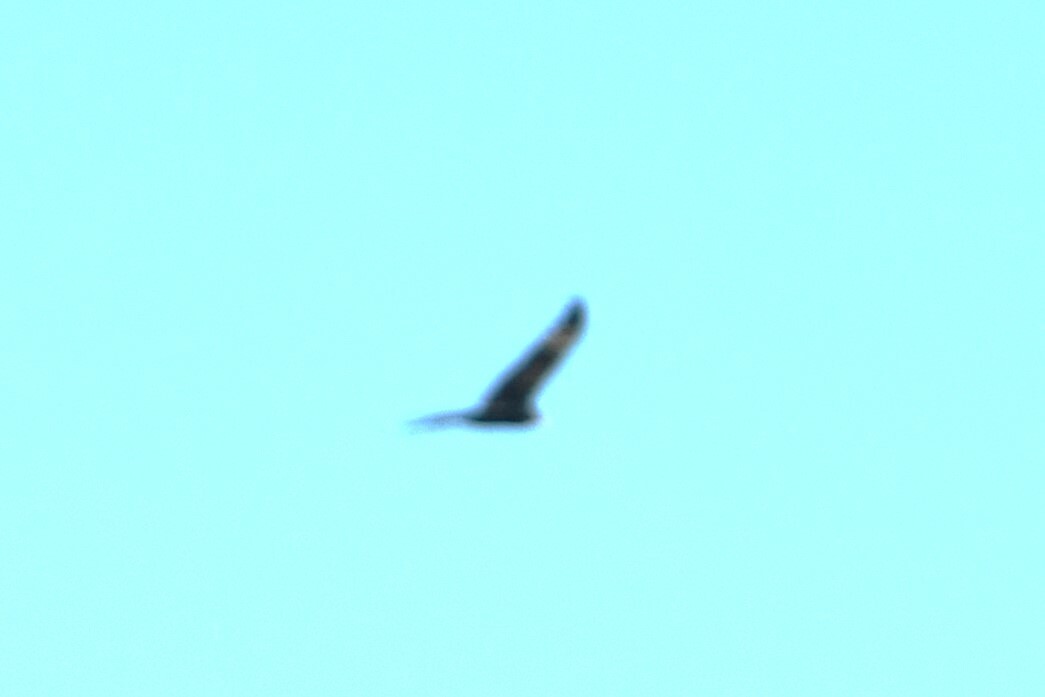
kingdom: Animalia
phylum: Chordata
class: Aves
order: Accipitriformes
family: Cathartidae
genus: Cathartes
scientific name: Cathartes aura
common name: Turkey vulture
